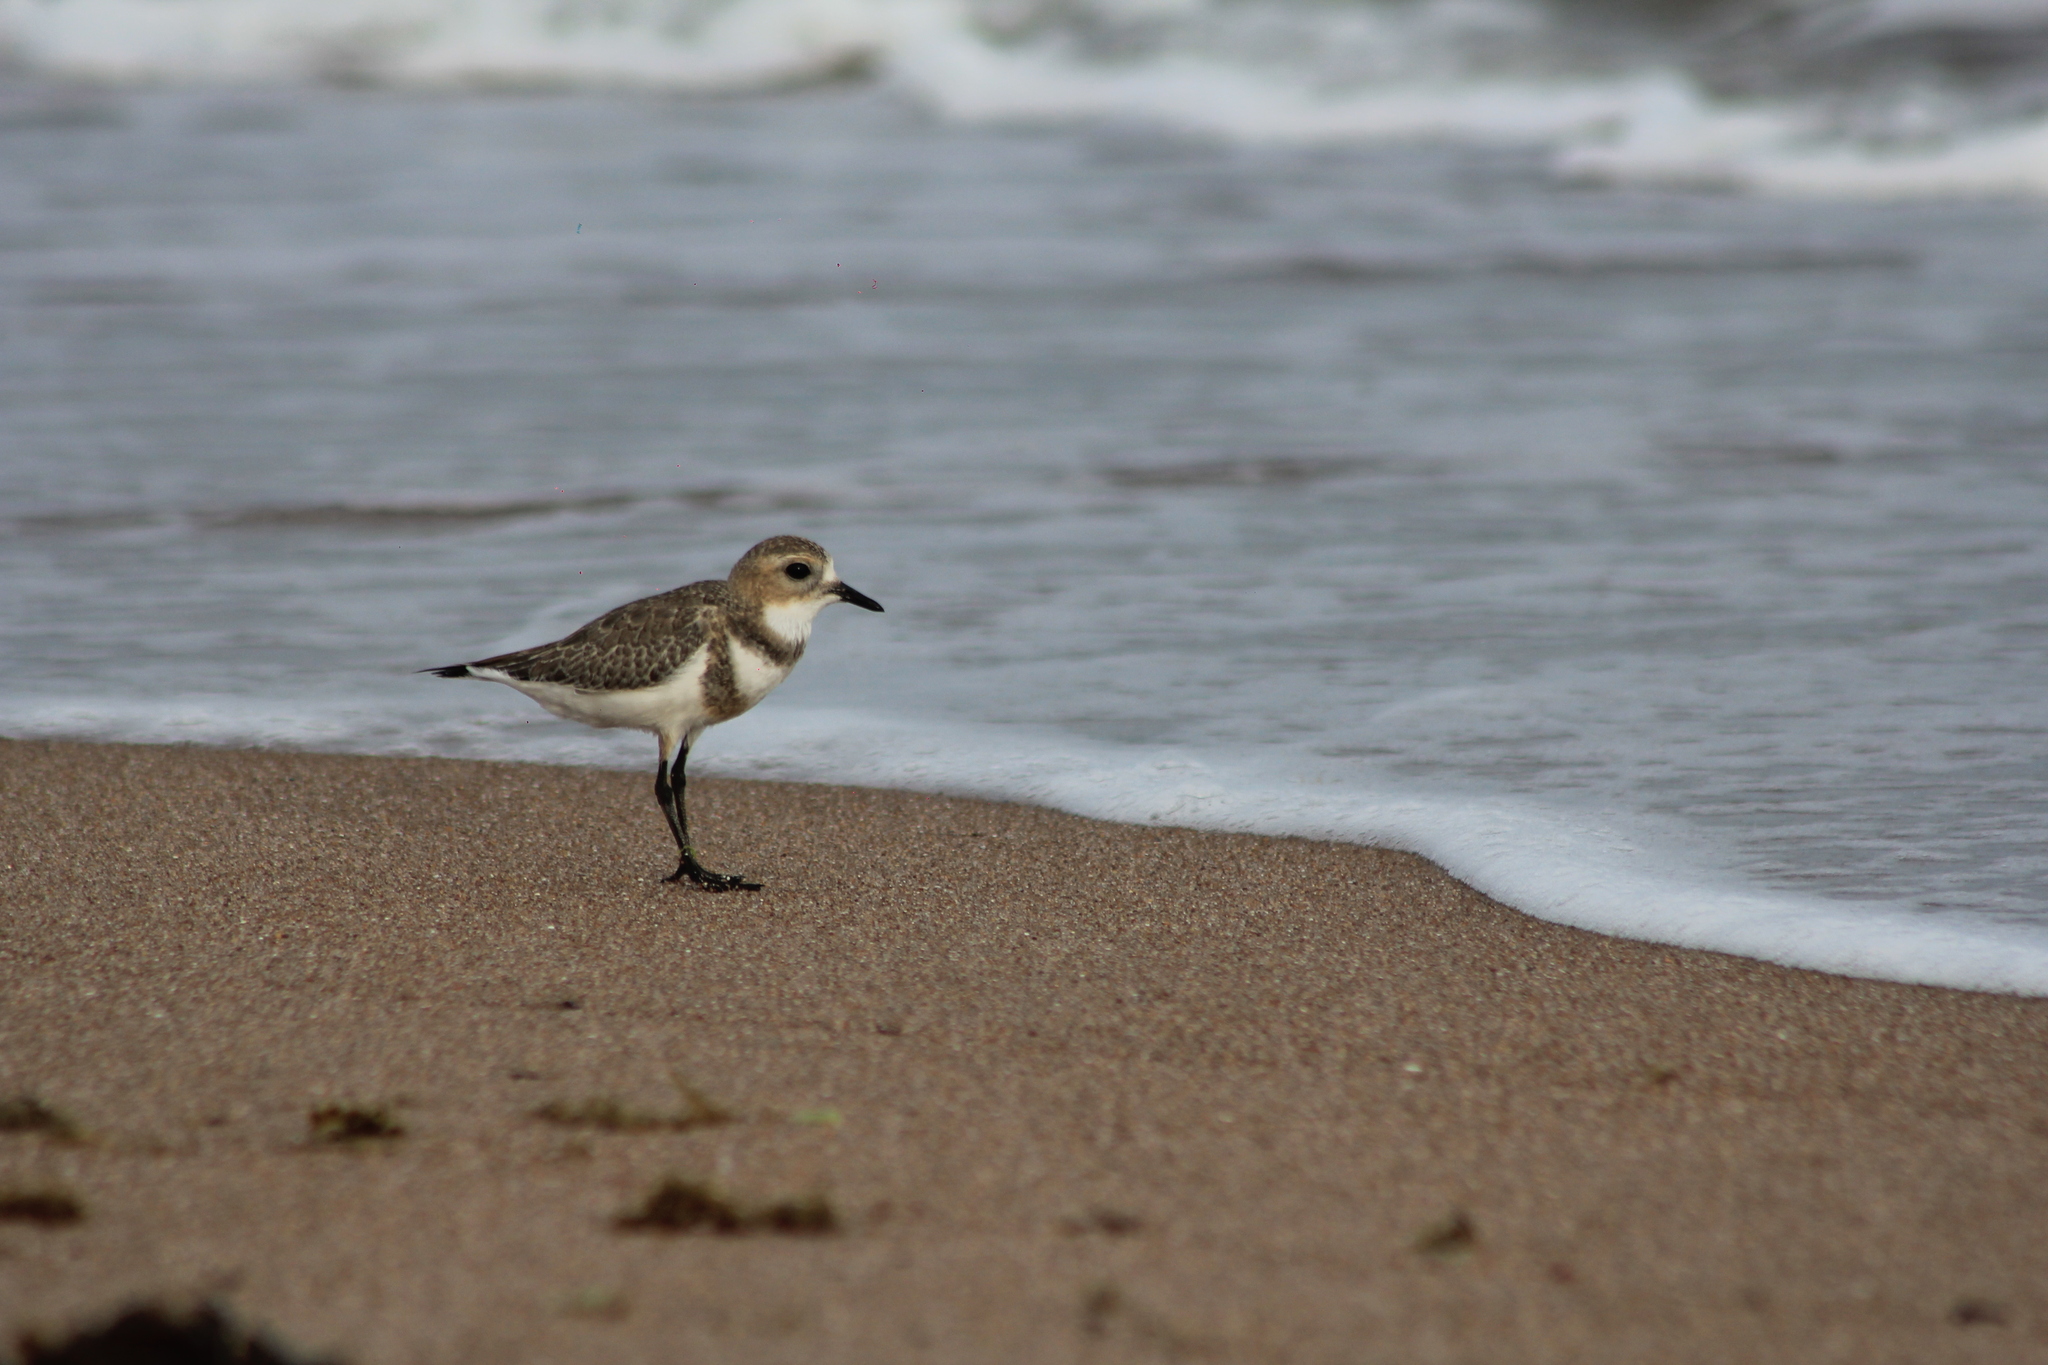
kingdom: Animalia
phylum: Chordata
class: Aves
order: Charadriiformes
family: Charadriidae
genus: Anarhynchus
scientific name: Anarhynchus
